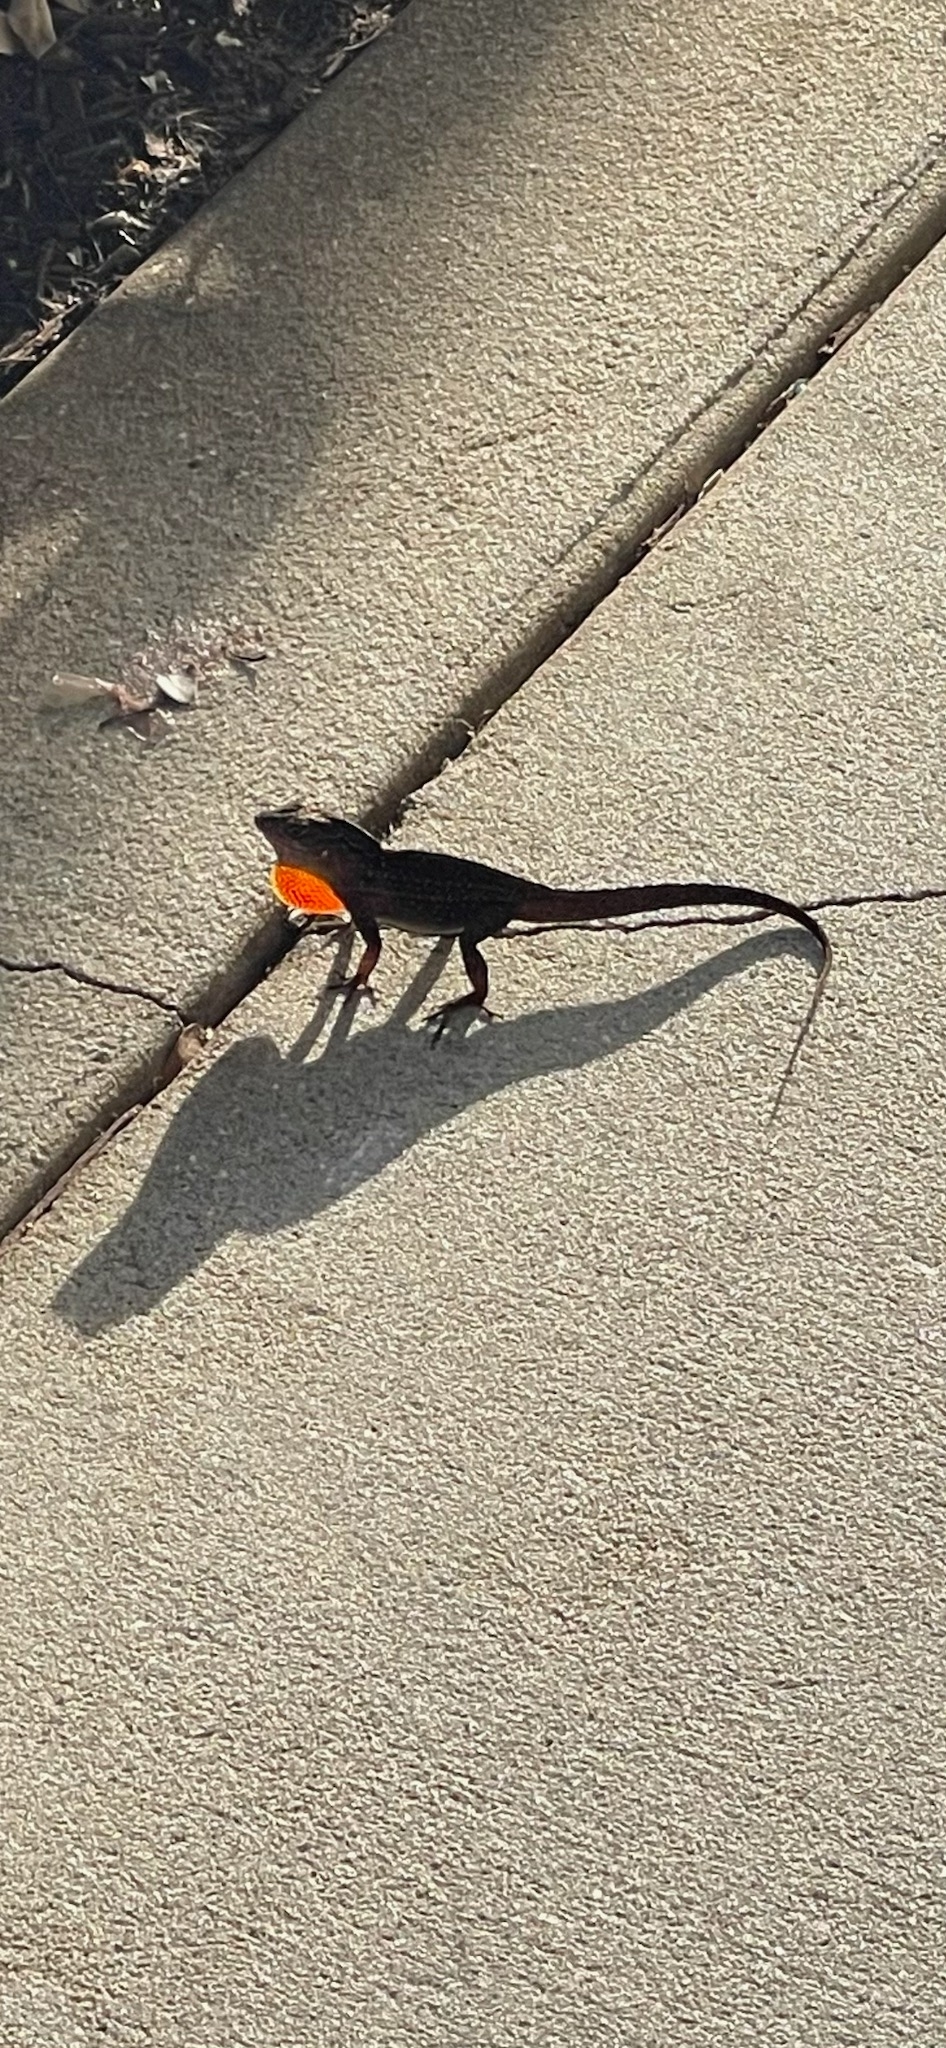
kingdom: Animalia
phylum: Chordata
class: Squamata
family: Dactyloidae
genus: Anolis
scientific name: Anolis sagrei
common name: Brown anole
